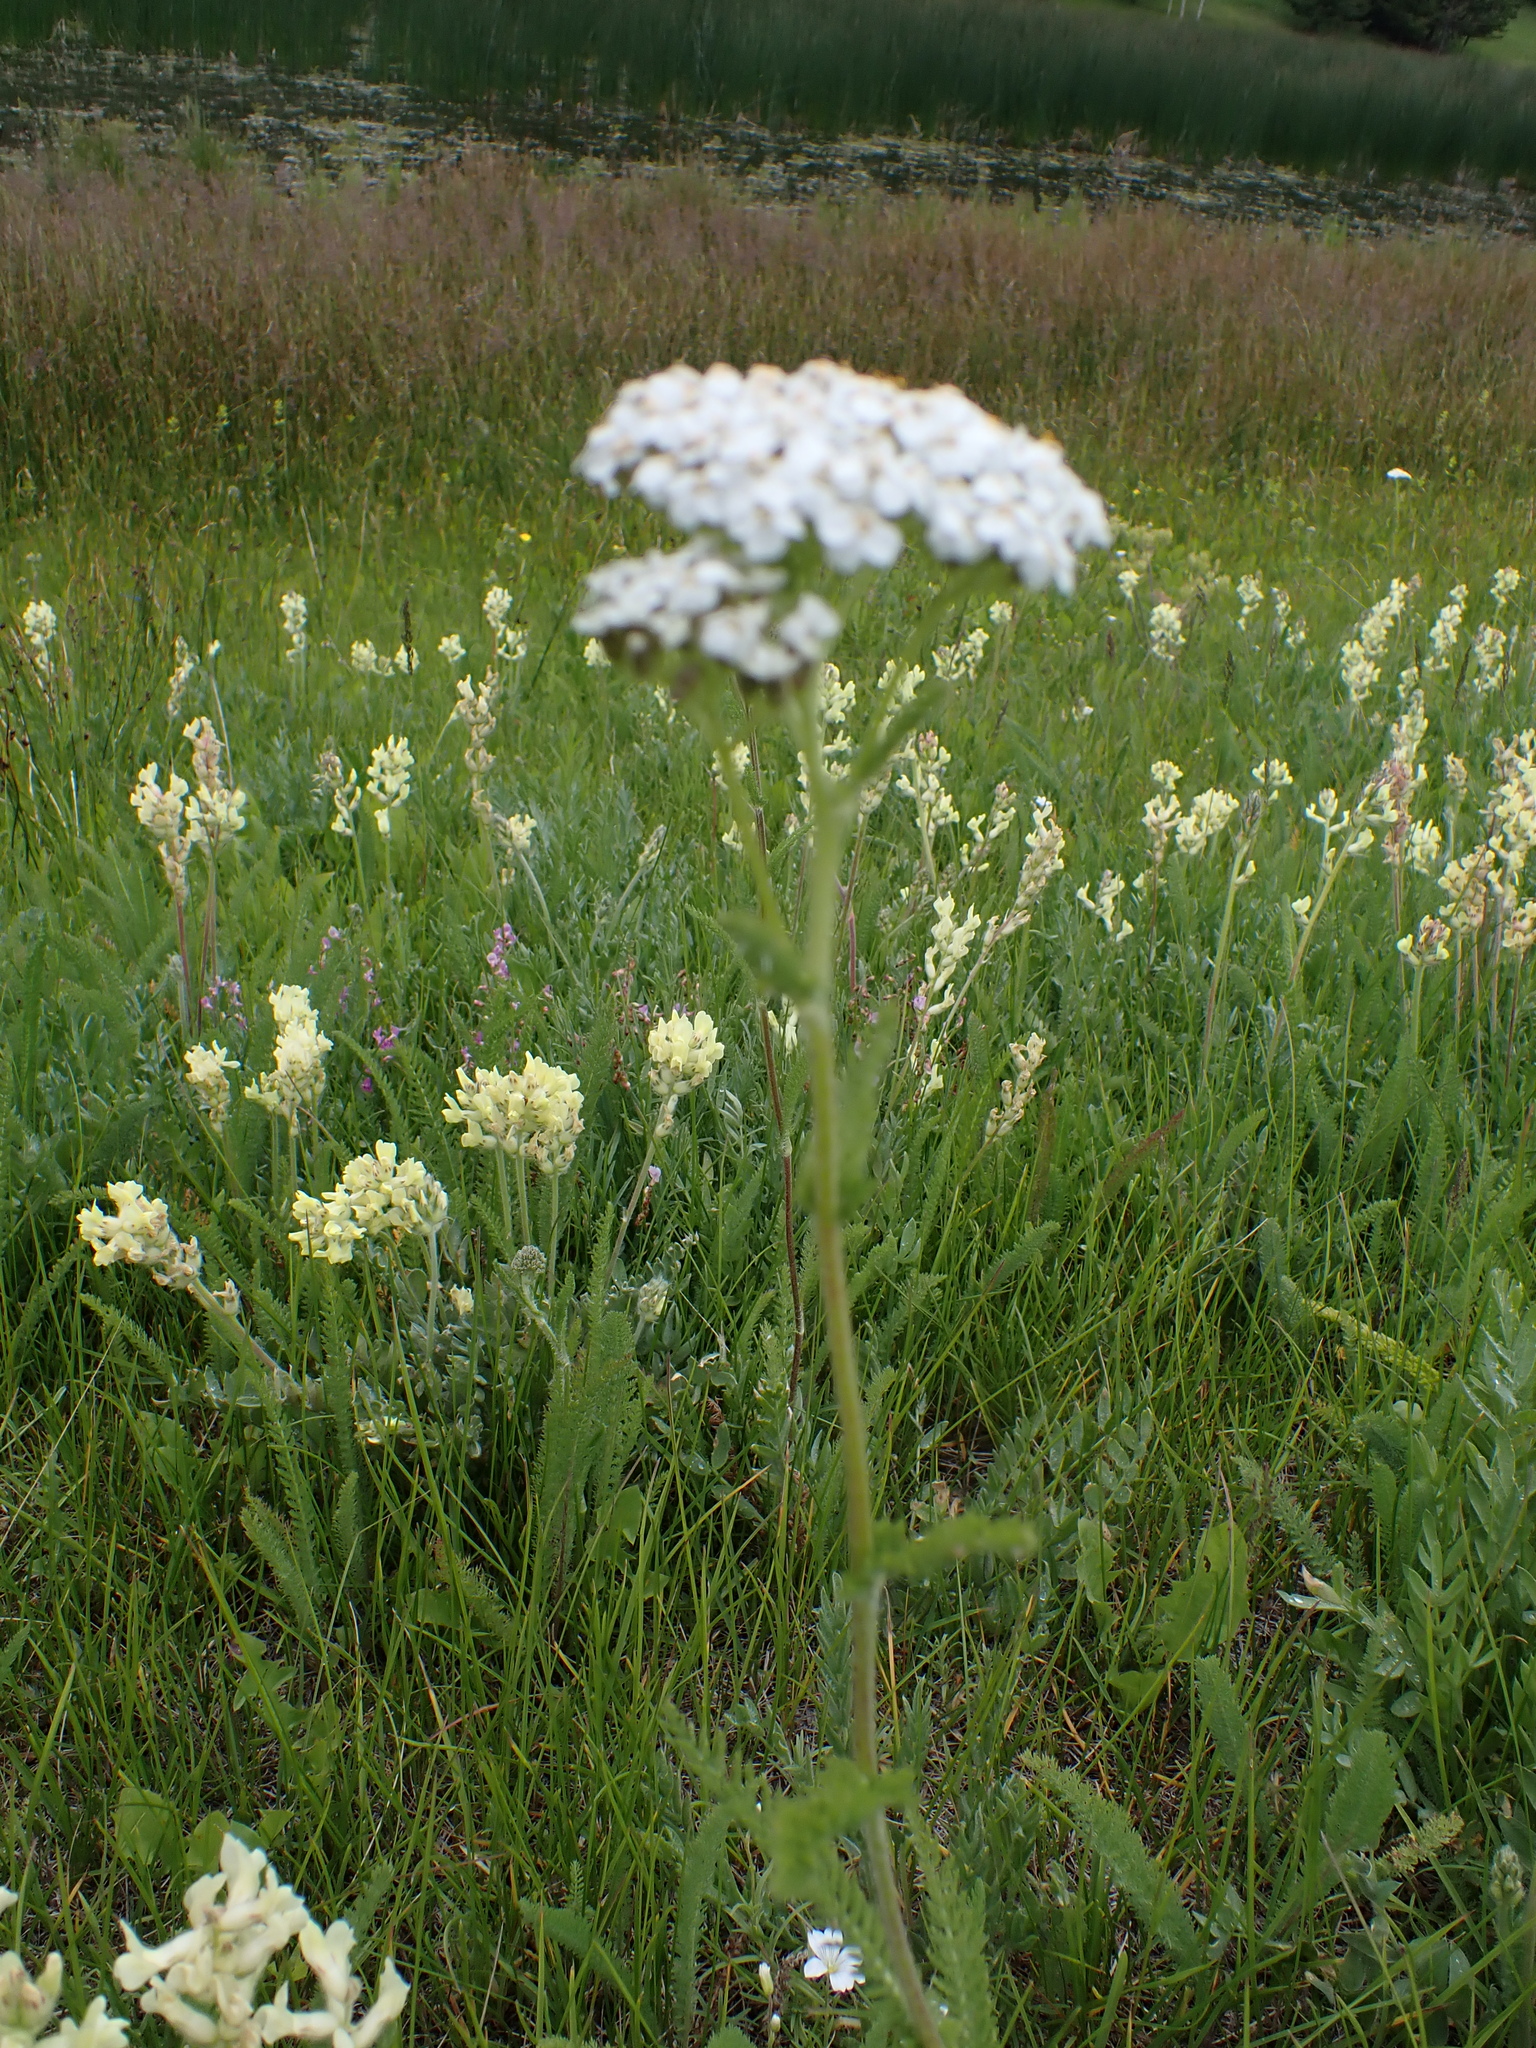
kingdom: Plantae
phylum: Tracheophyta
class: Magnoliopsida
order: Asterales
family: Asteraceae
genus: Achillea
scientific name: Achillea millefolium
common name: Yarrow
